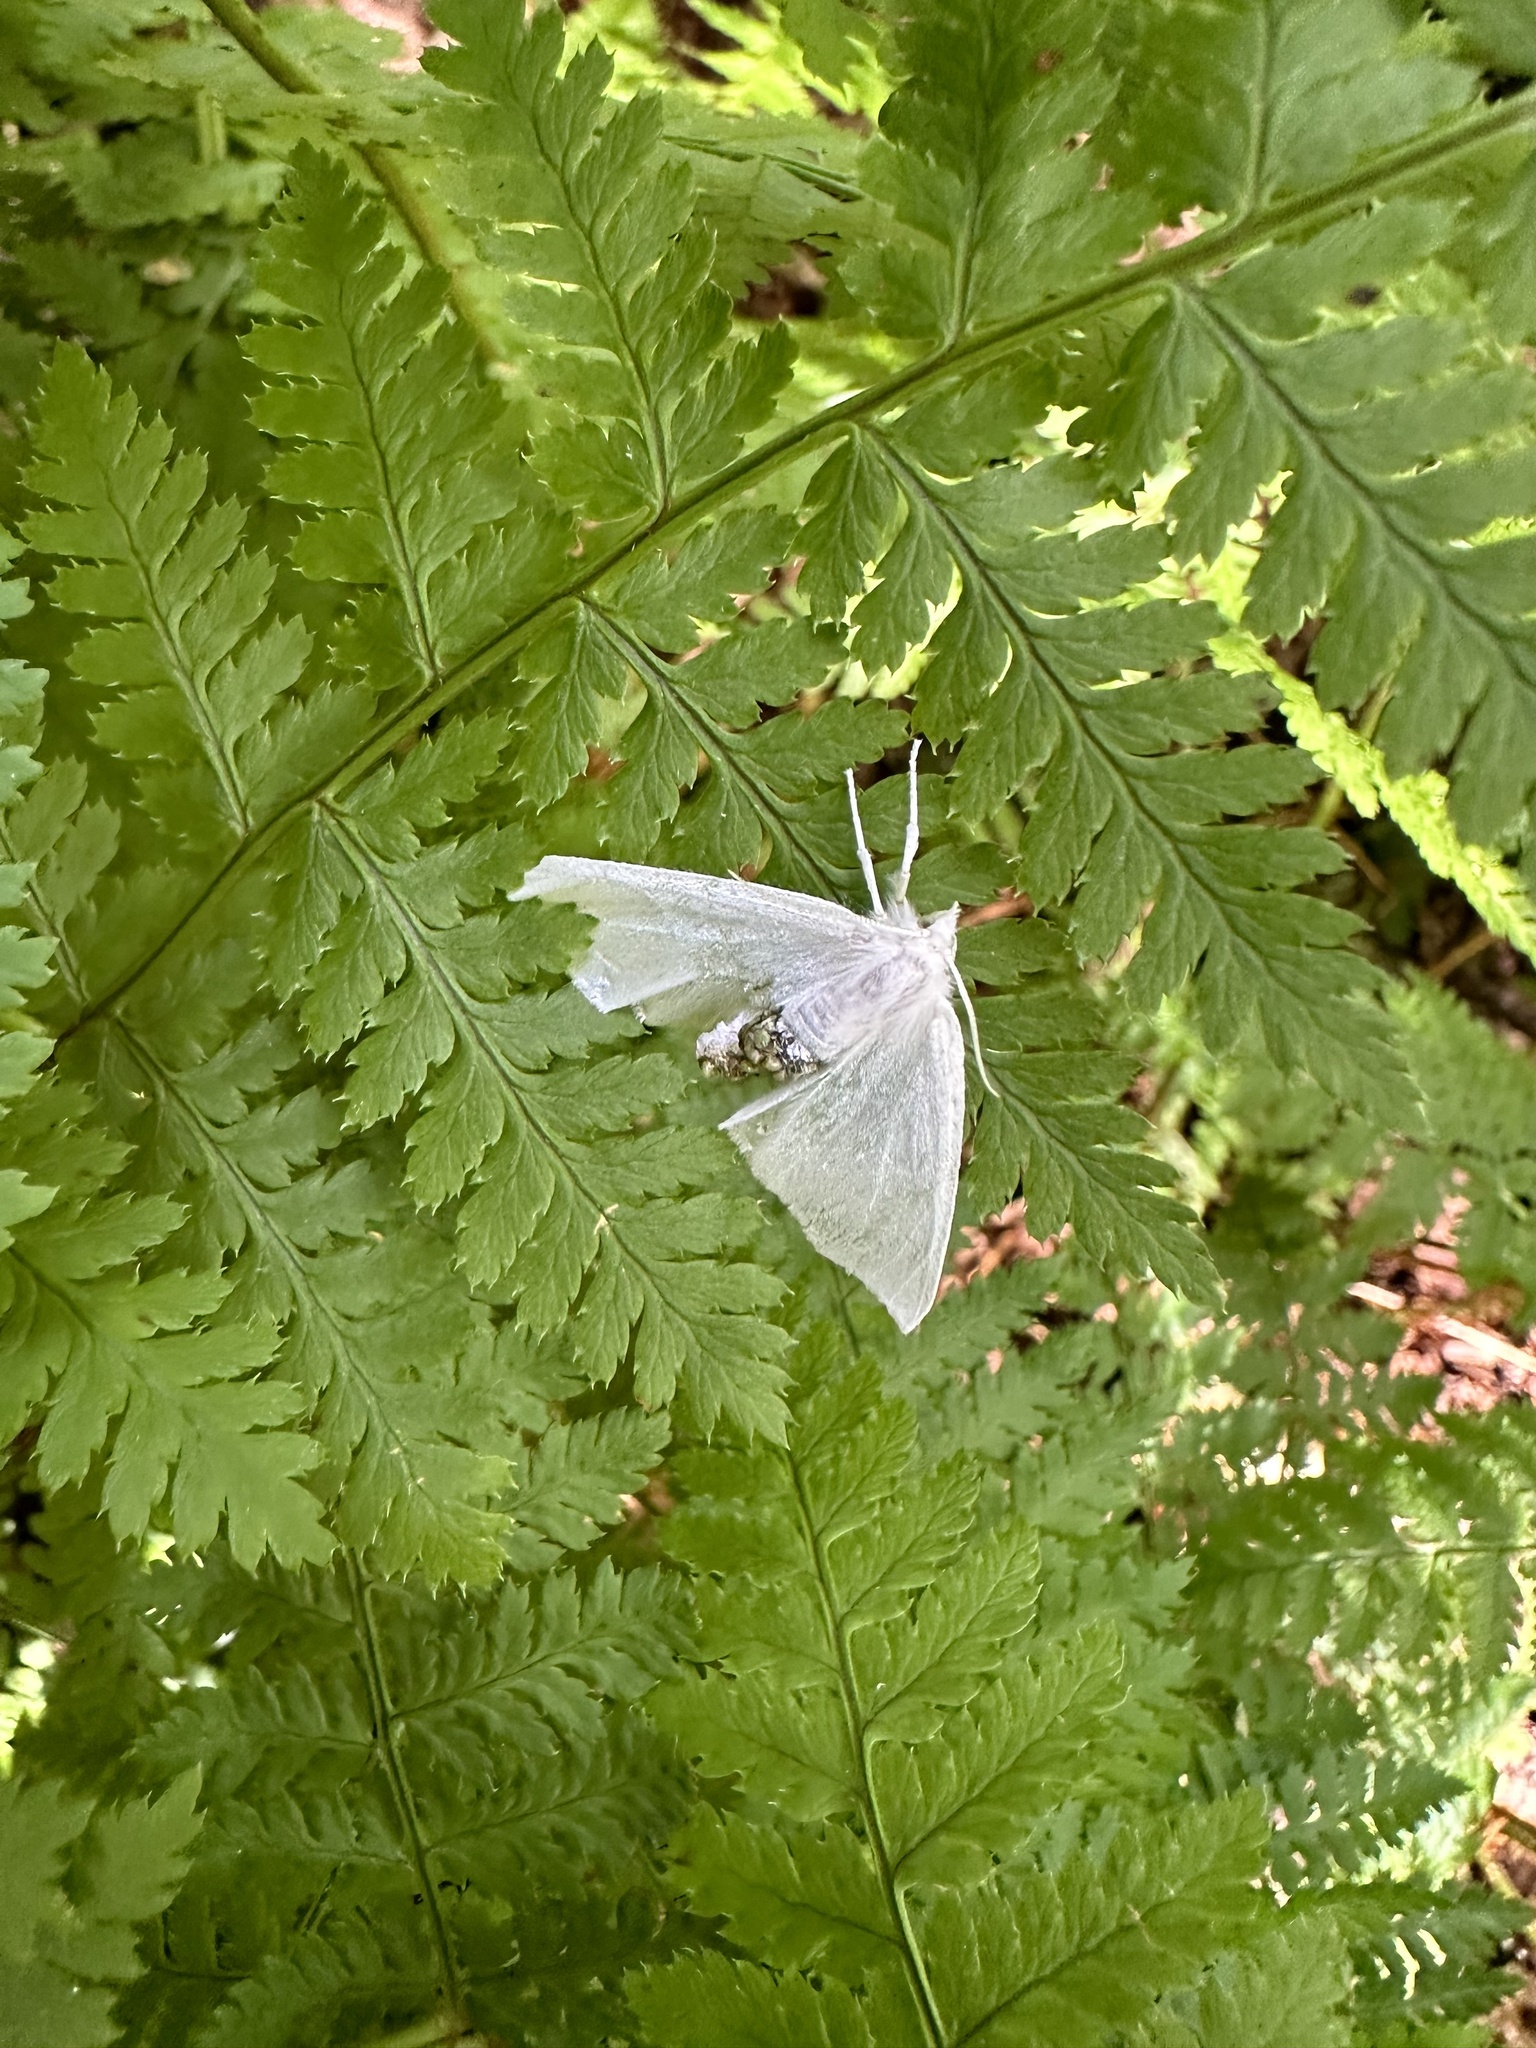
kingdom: Animalia
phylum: Arthropoda
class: Insecta
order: Lepidoptera
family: Geometridae
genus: Ennomos
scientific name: Ennomos subsignaria
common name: Elm spanworm
